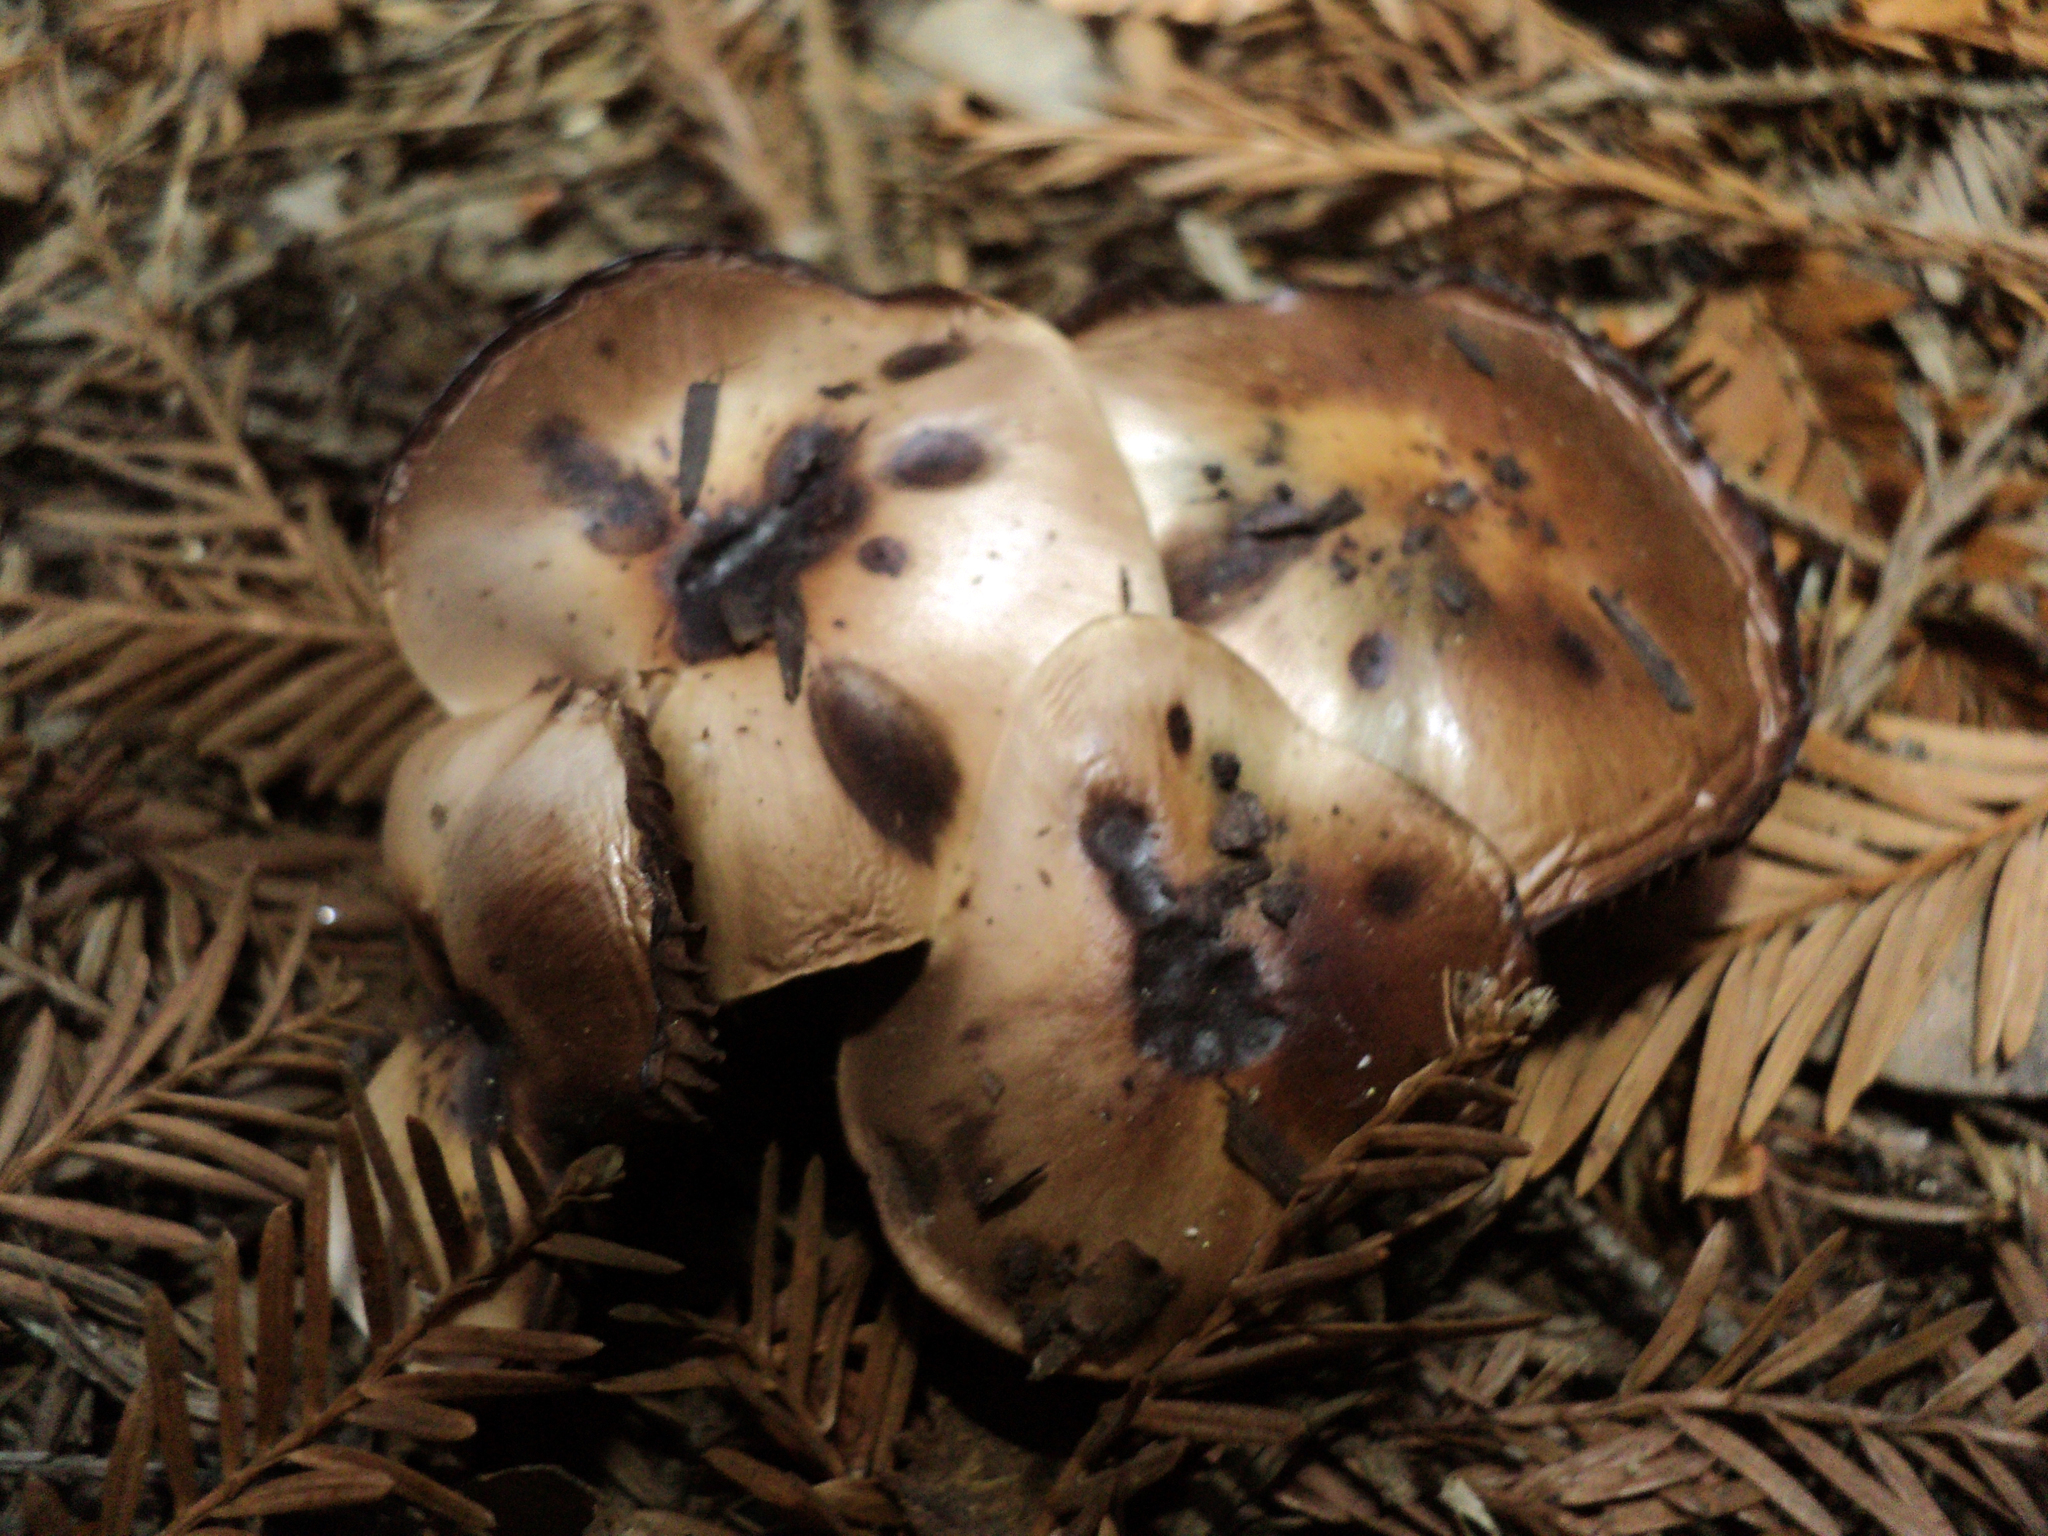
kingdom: Fungi
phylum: Basidiomycota
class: Agaricomycetes
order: Boletales
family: Gomphidiaceae
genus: Gomphidius
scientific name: Gomphidius oregonensis
